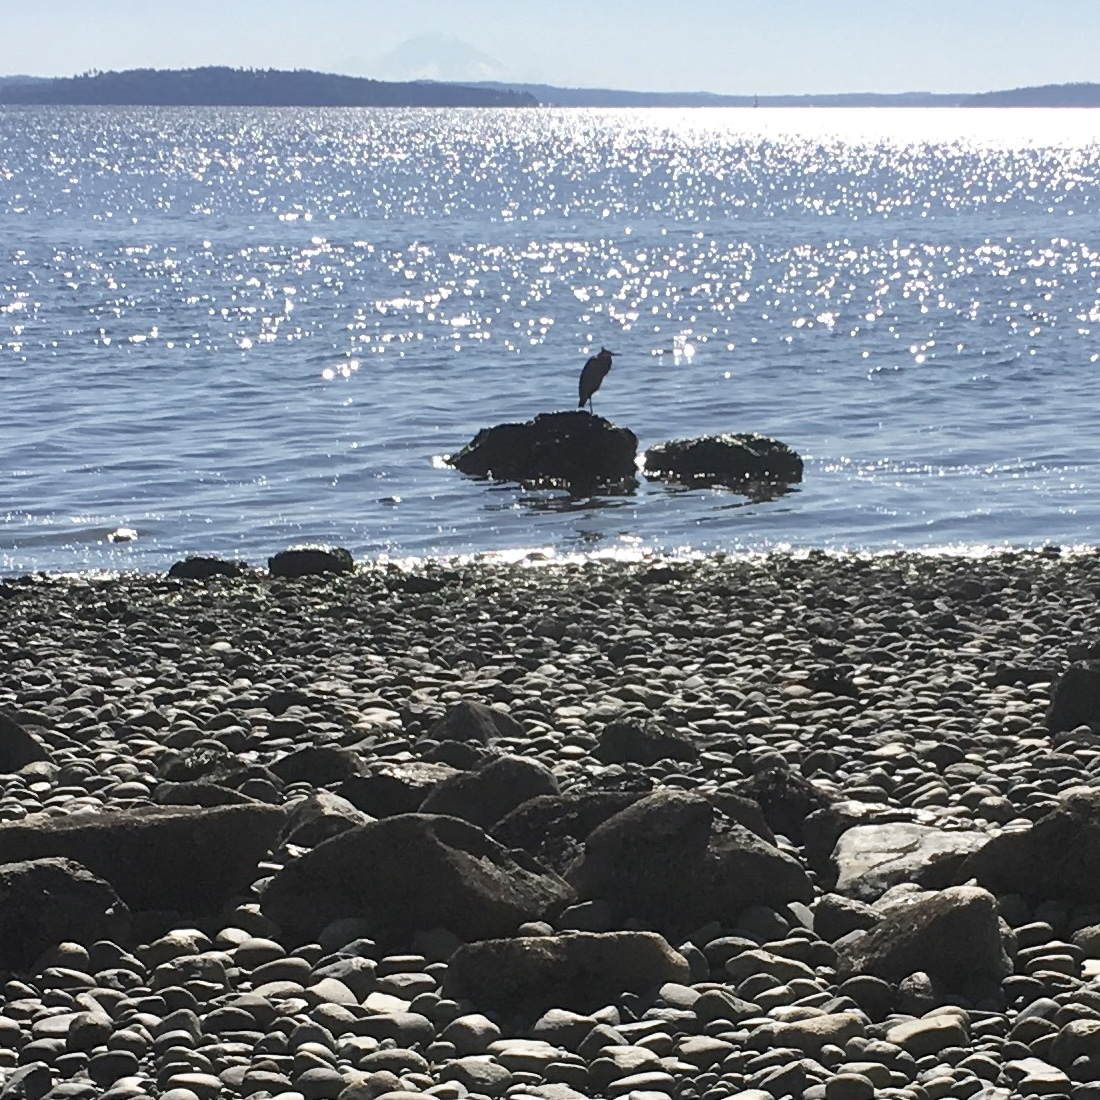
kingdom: Animalia
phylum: Chordata
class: Aves
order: Pelecaniformes
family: Ardeidae
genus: Ardea
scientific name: Ardea herodias
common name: Great blue heron
